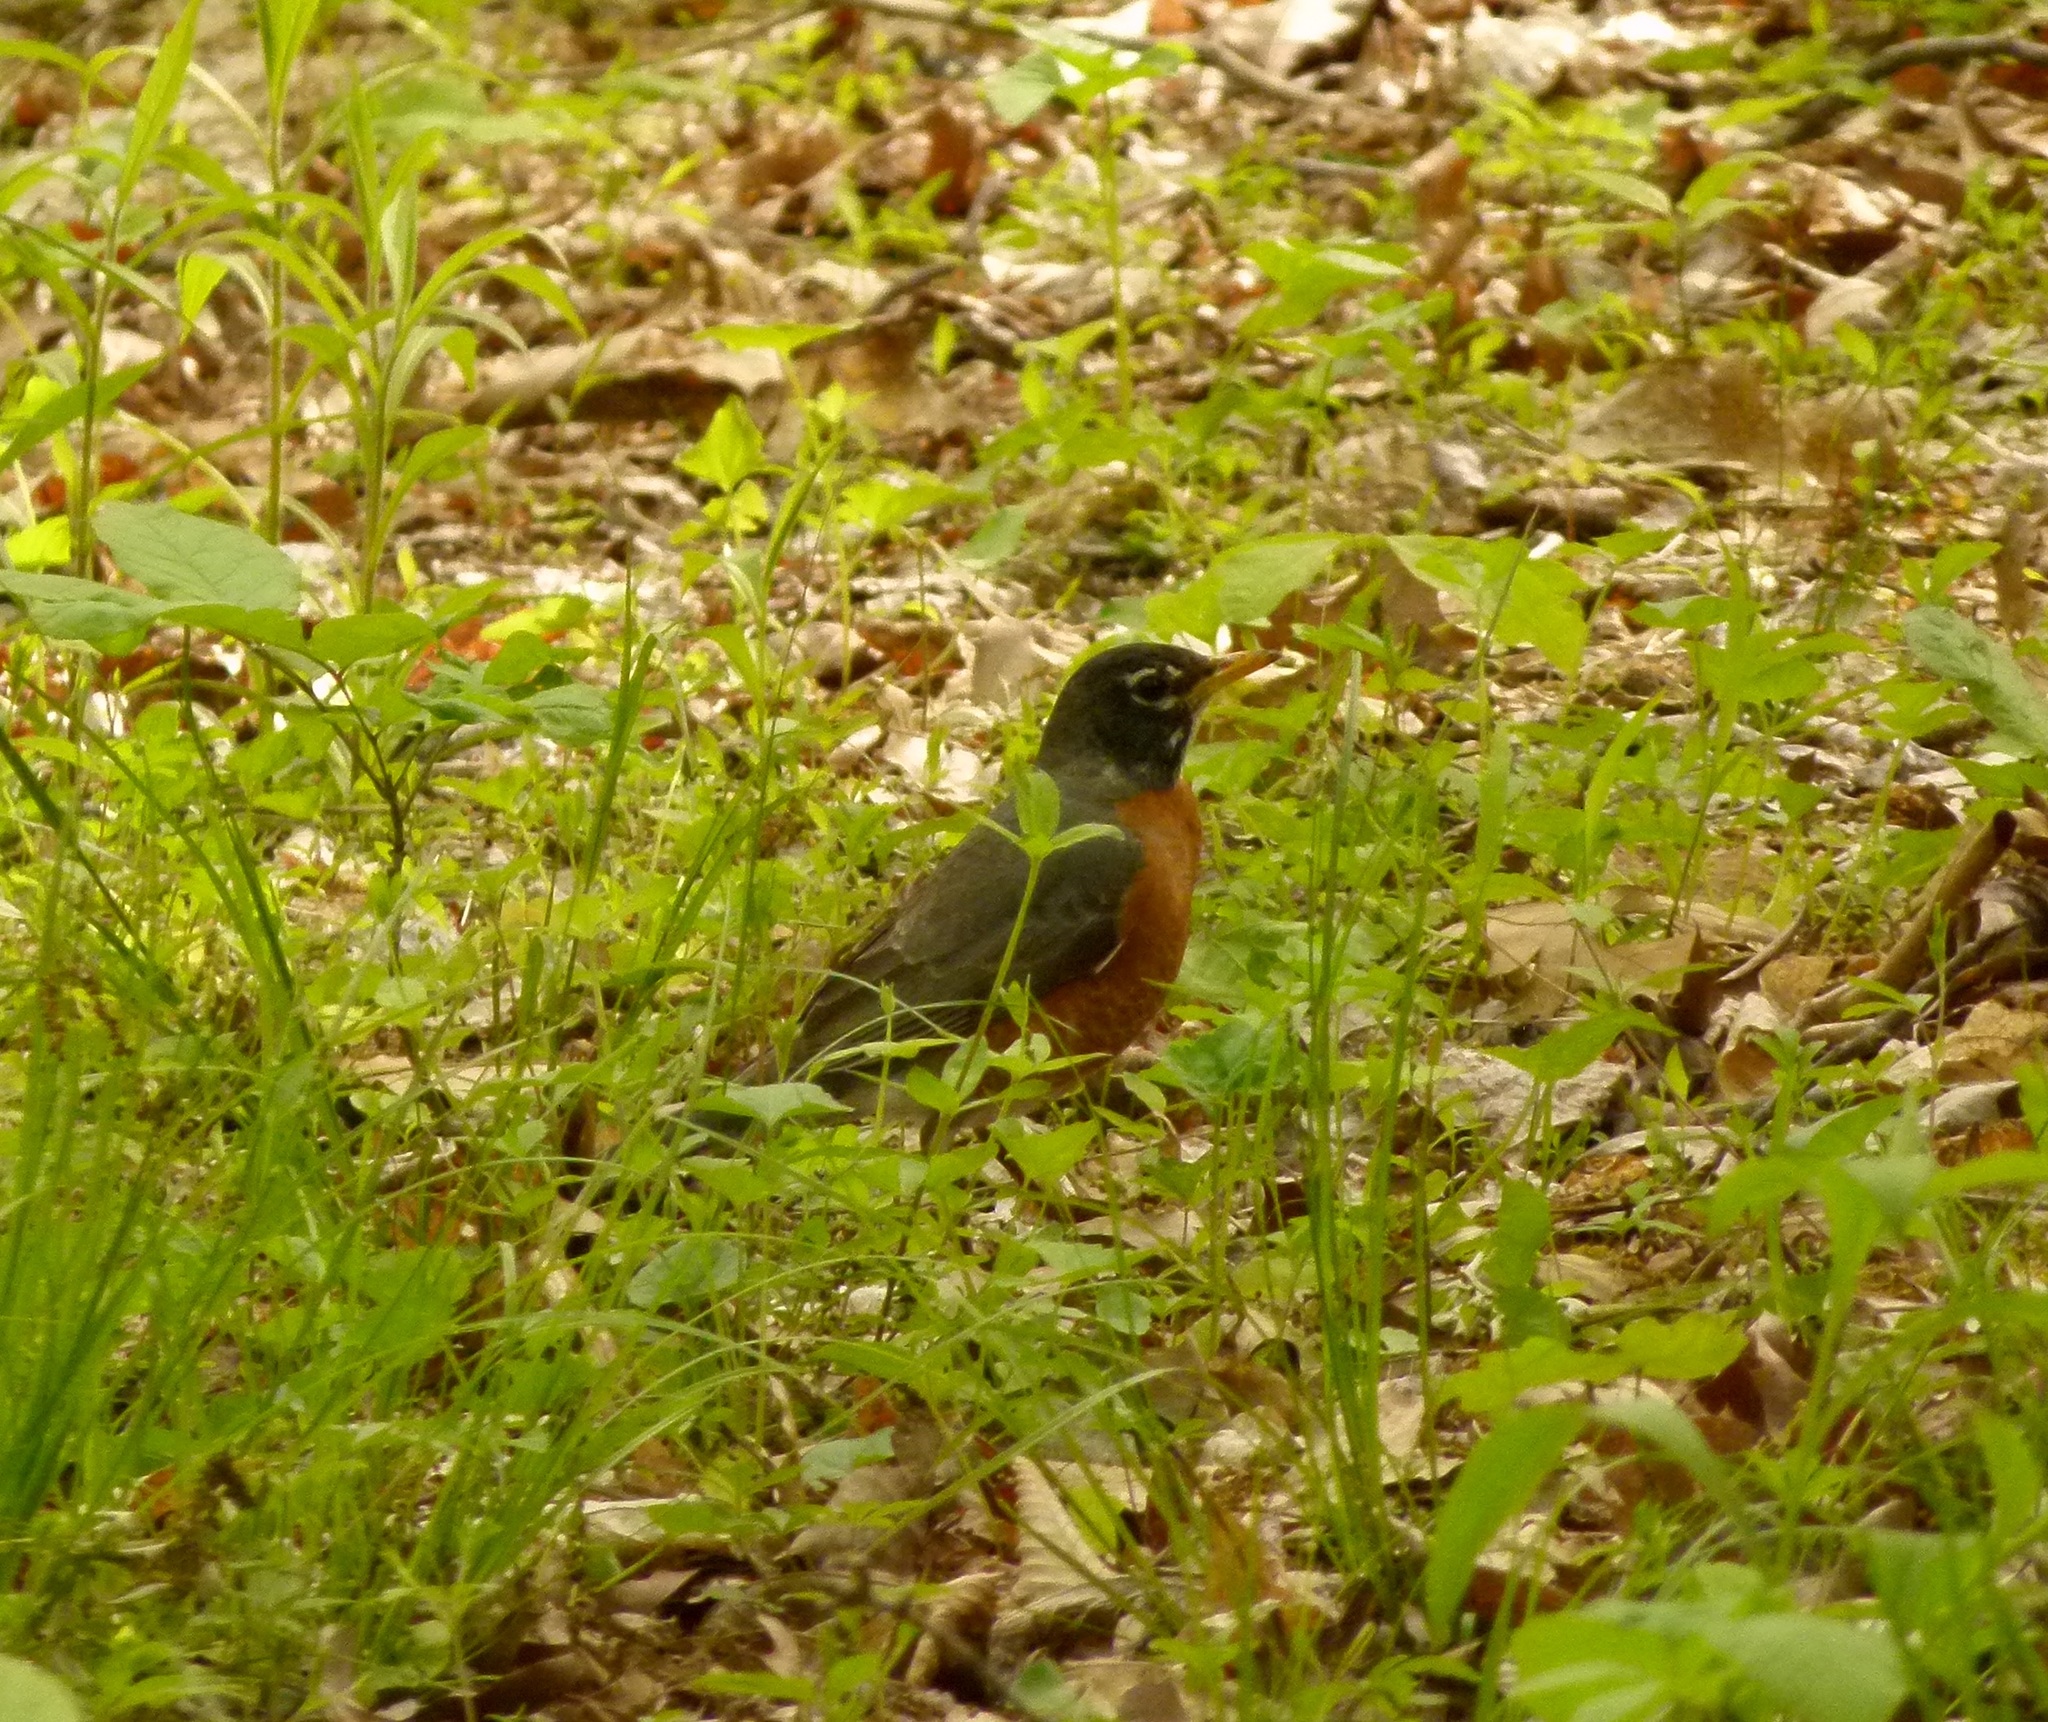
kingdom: Animalia
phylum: Chordata
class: Aves
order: Passeriformes
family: Turdidae
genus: Turdus
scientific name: Turdus migratorius
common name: American robin
